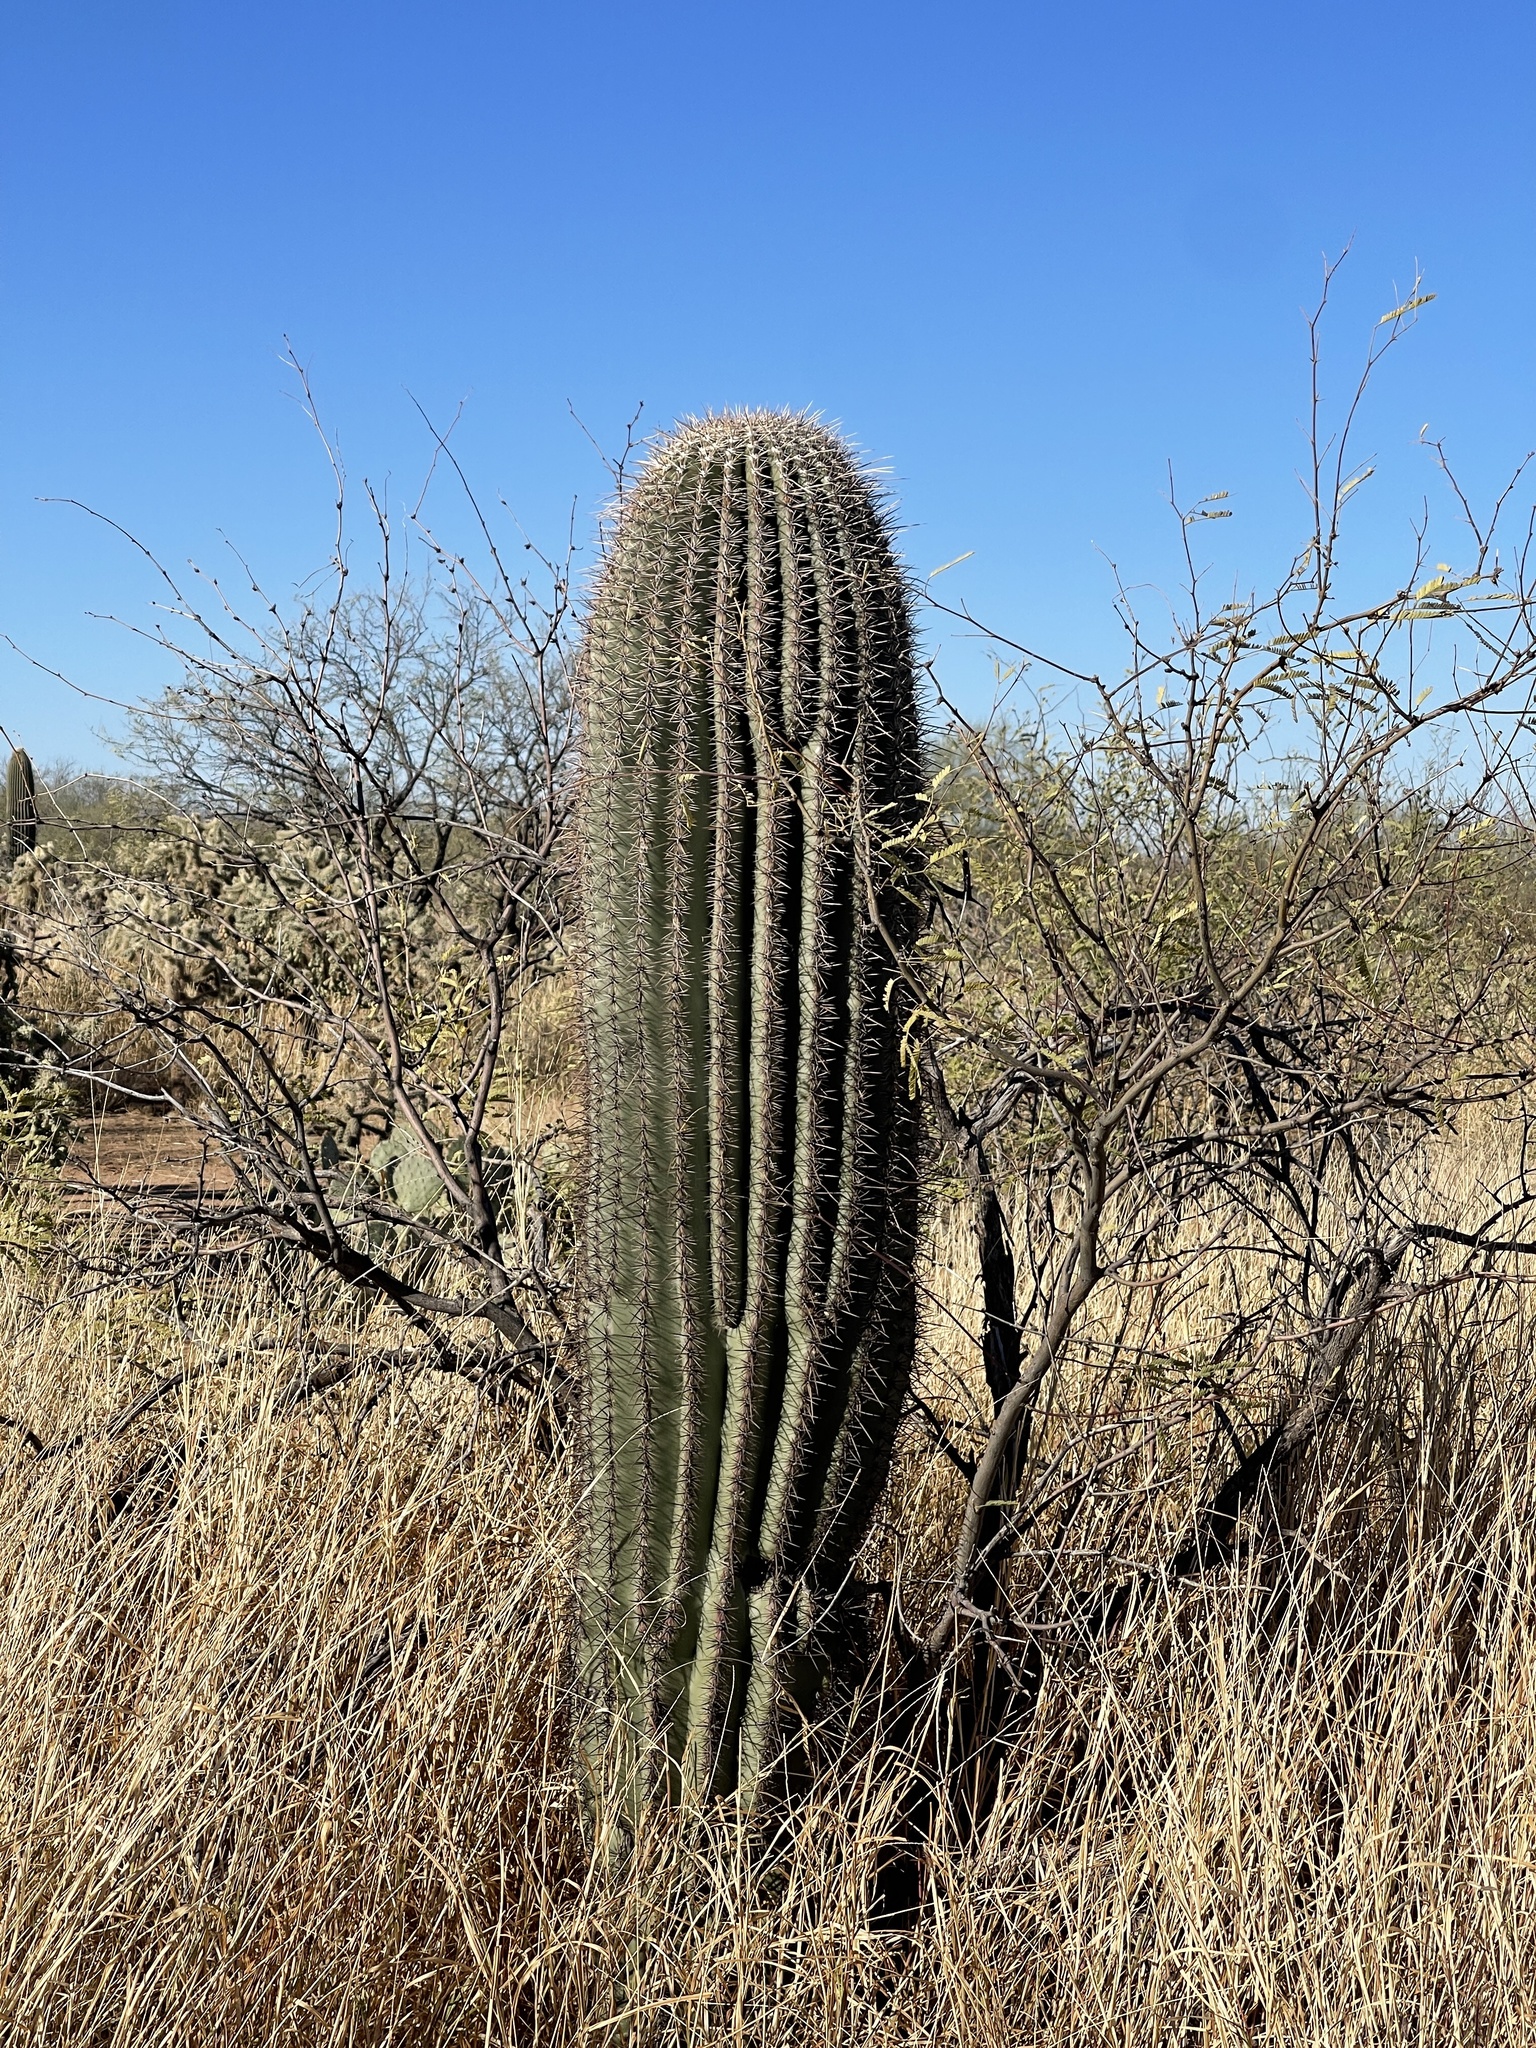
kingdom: Plantae
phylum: Tracheophyta
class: Magnoliopsida
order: Caryophyllales
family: Cactaceae
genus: Carnegiea
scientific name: Carnegiea gigantea
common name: Saguaro
